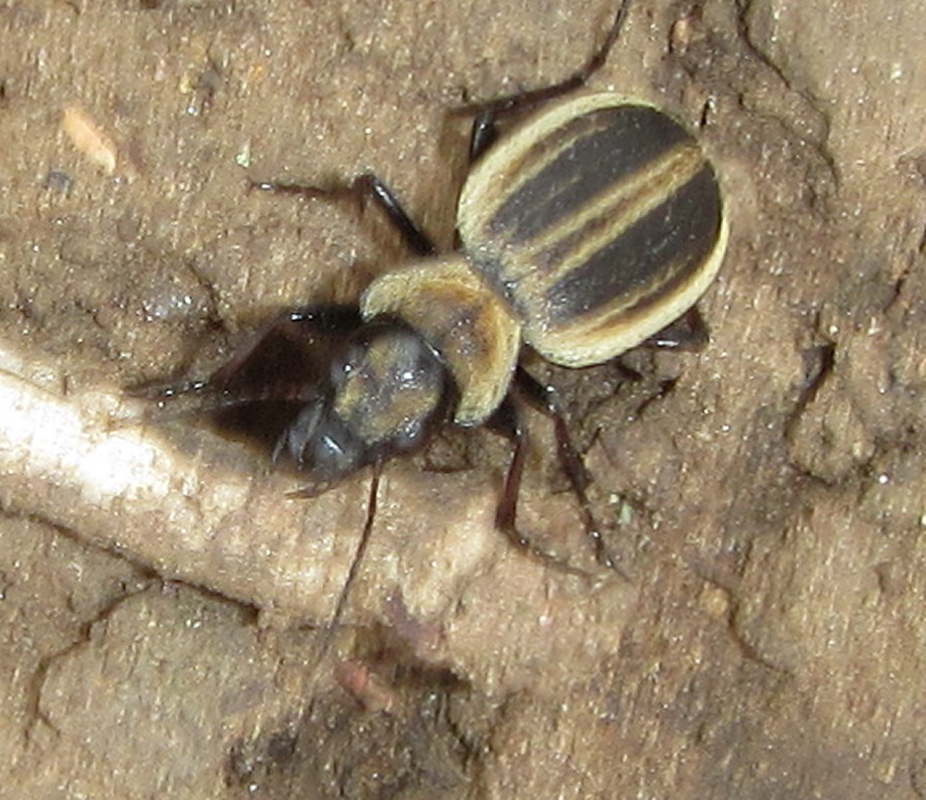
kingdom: Animalia
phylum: Arthropoda
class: Insecta
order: Coleoptera
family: Carabidae
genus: Graphipterus
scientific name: Graphipterus bonvouloiri
